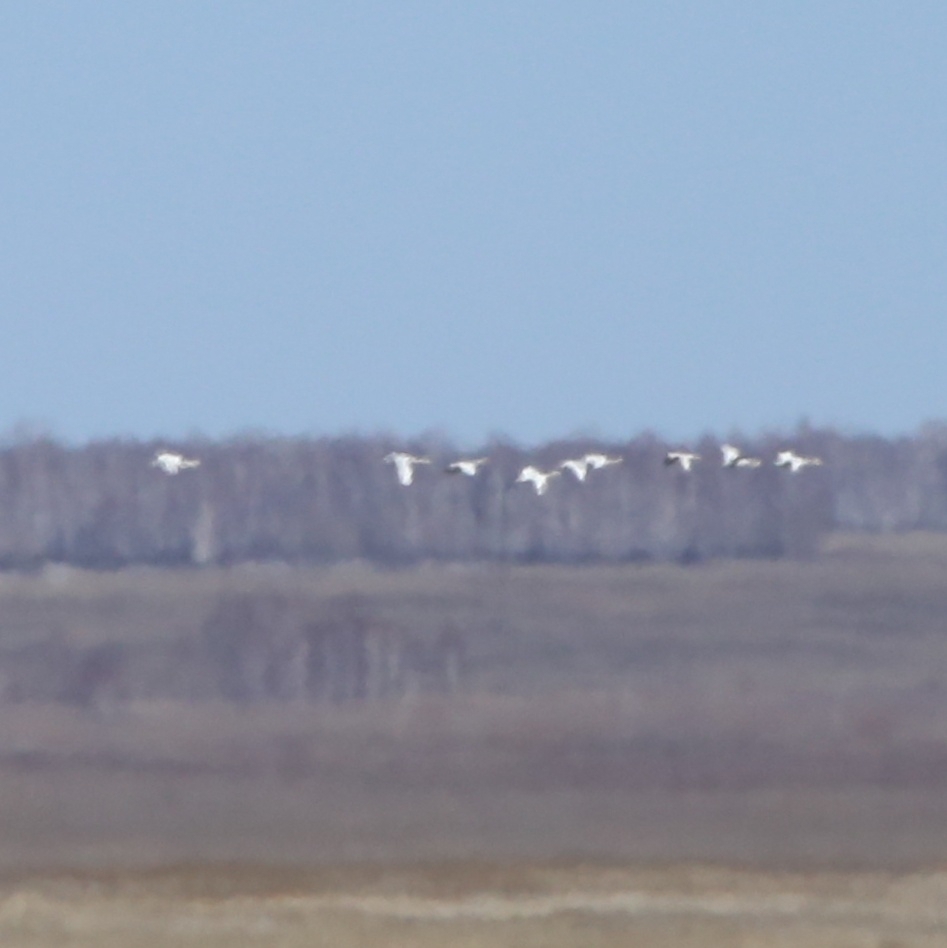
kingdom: Animalia
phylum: Chordata
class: Aves
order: Anseriformes
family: Anatidae
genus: Cygnus
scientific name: Cygnus
